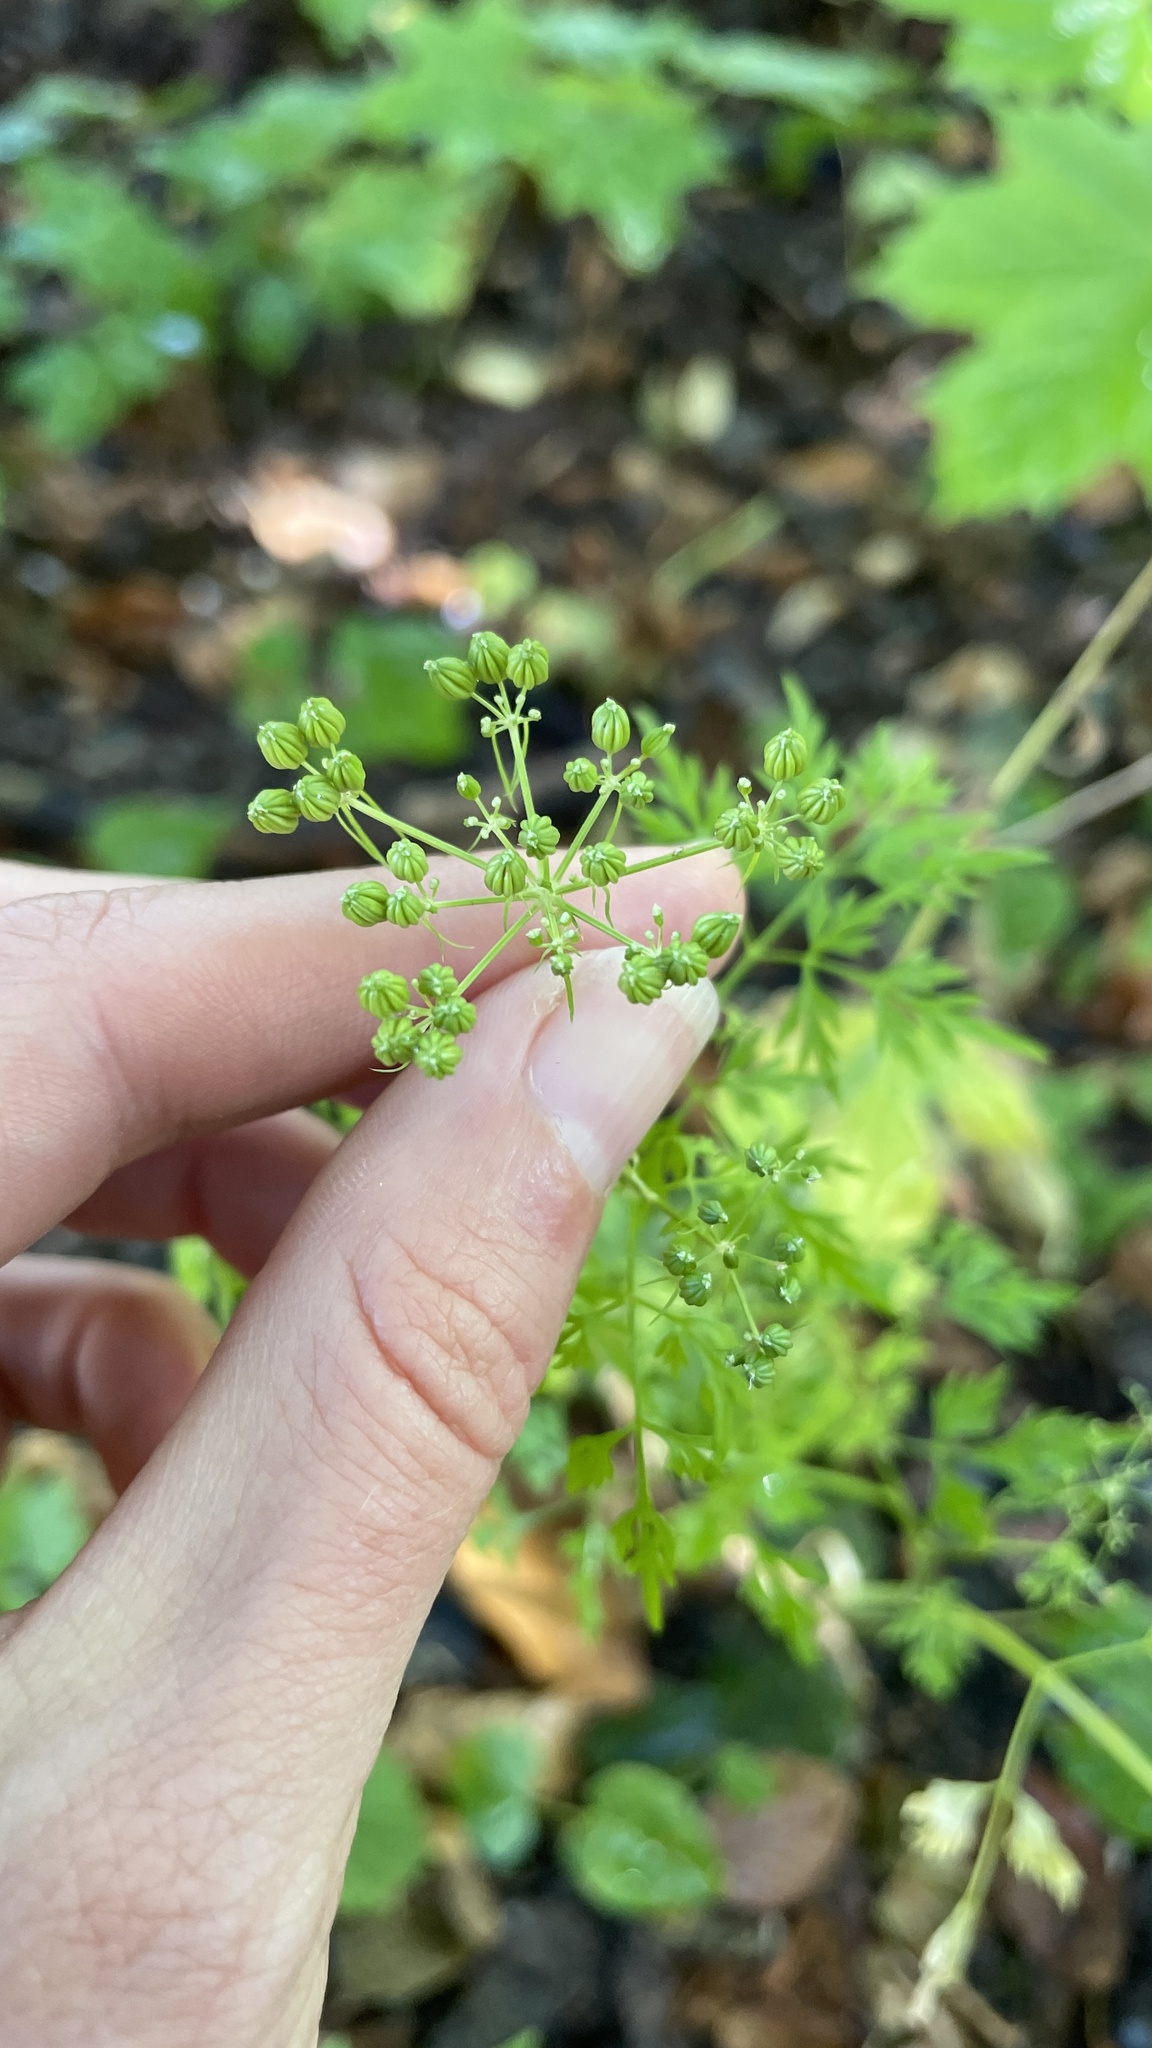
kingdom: Plantae
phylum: Tracheophyta
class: Magnoliopsida
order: Apiales
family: Apiaceae
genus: Aethusa
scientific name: Aethusa cynapium
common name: Fool's parsley
